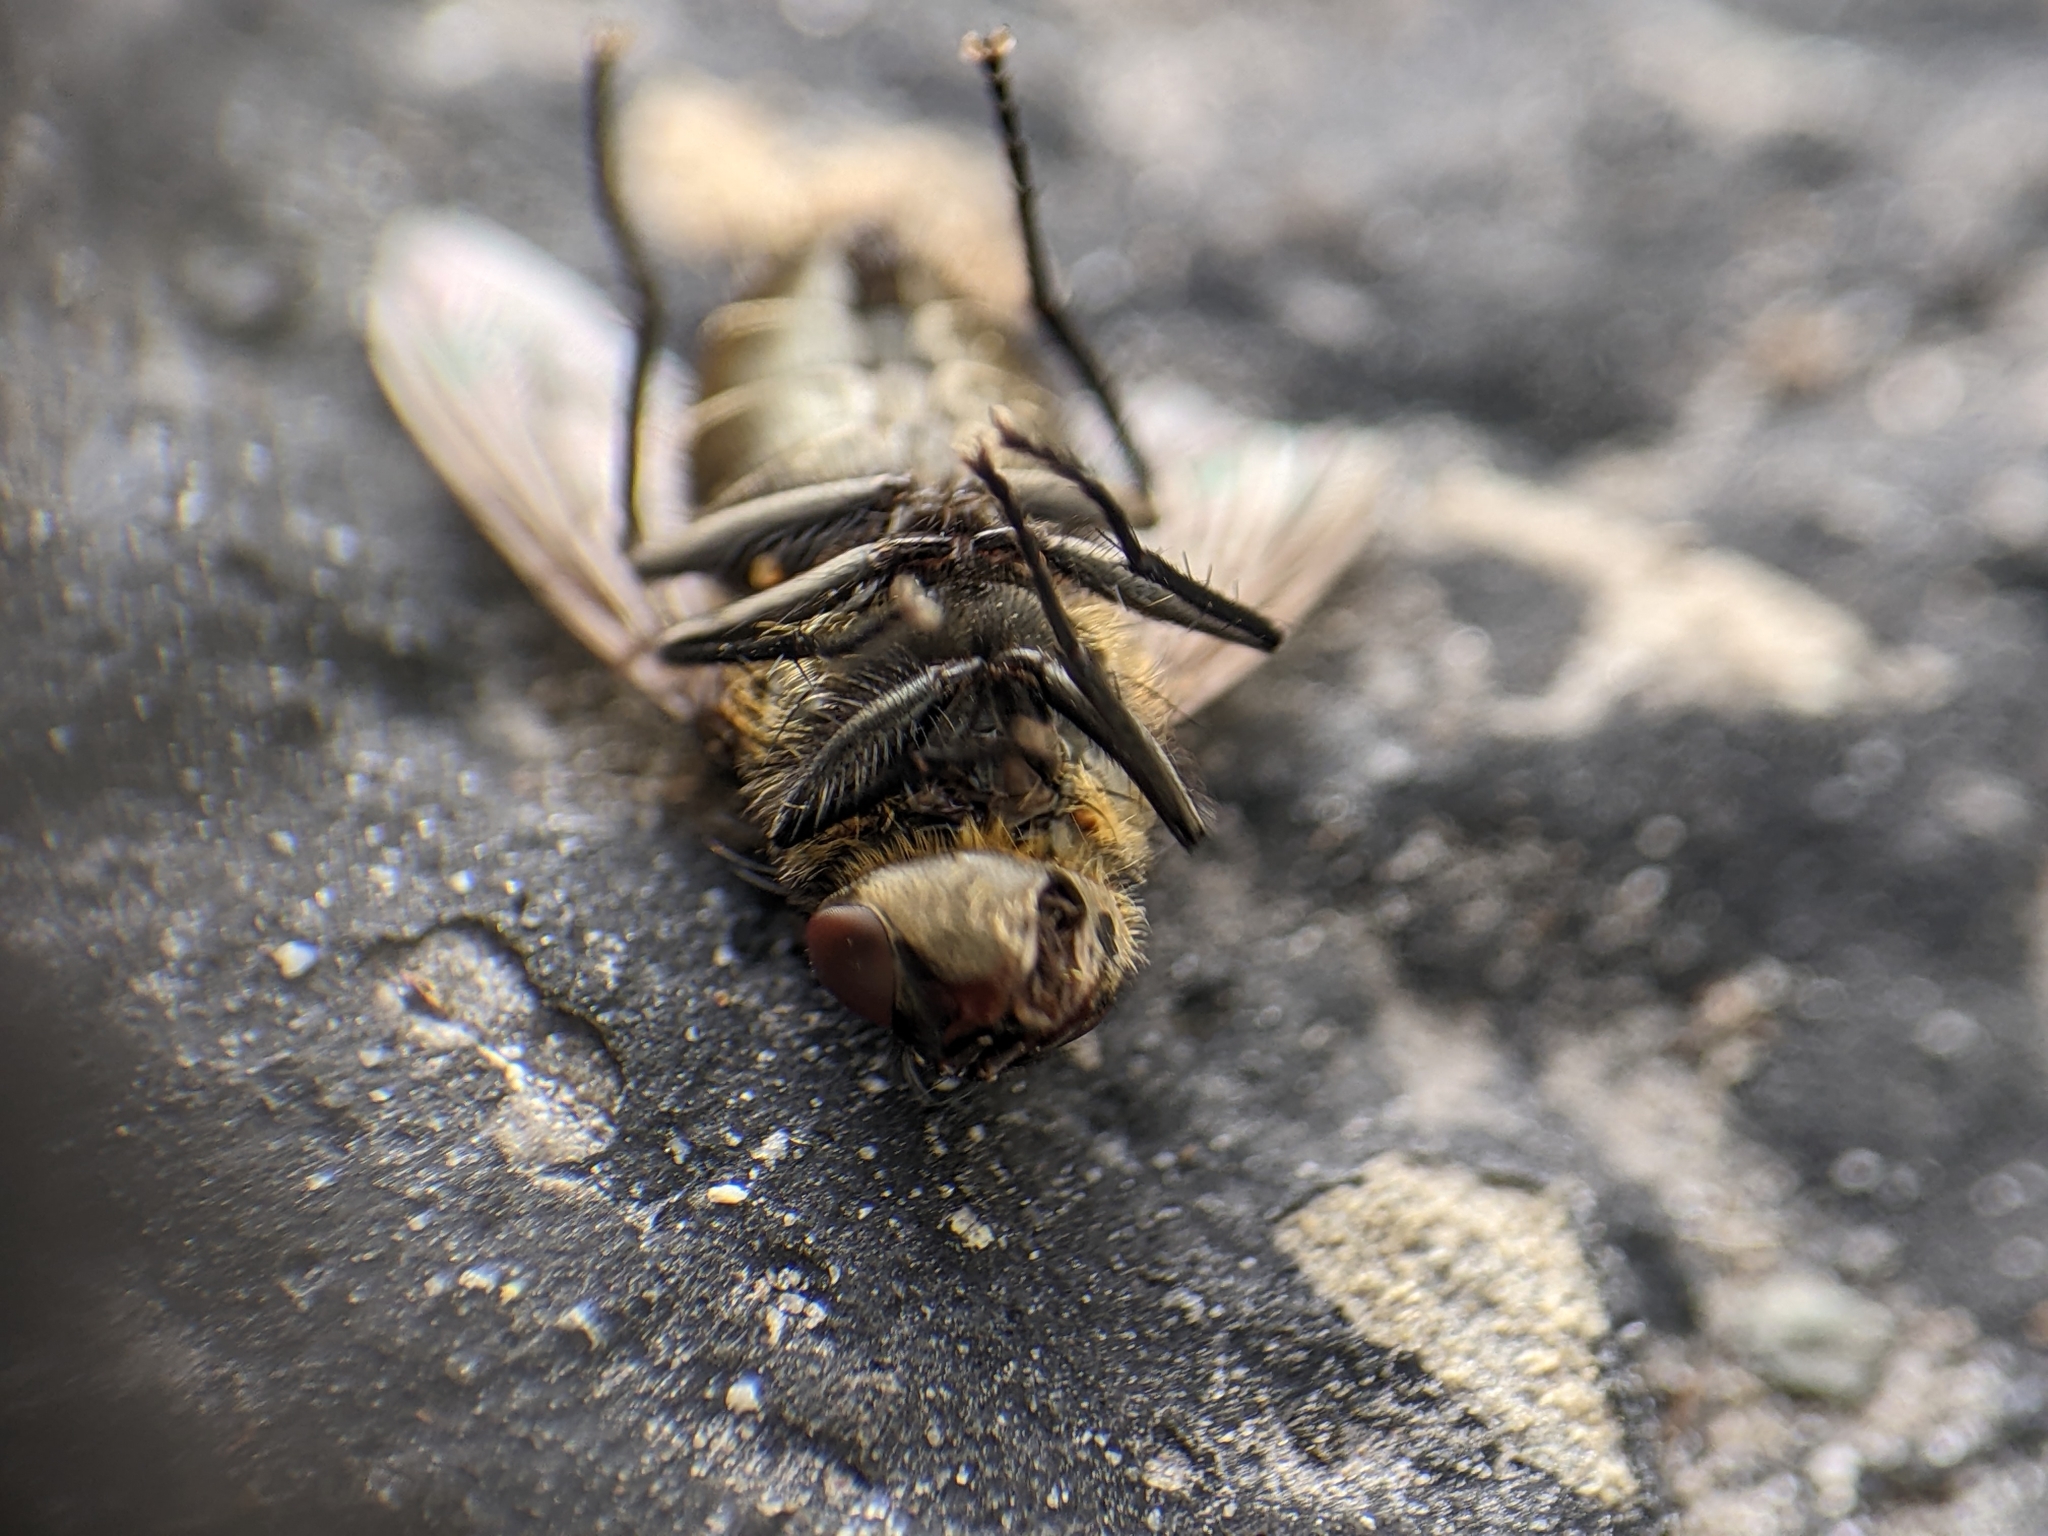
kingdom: Animalia
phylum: Arthropoda
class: Insecta
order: Diptera
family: Polleniidae
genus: Pollenia
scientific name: Pollenia
